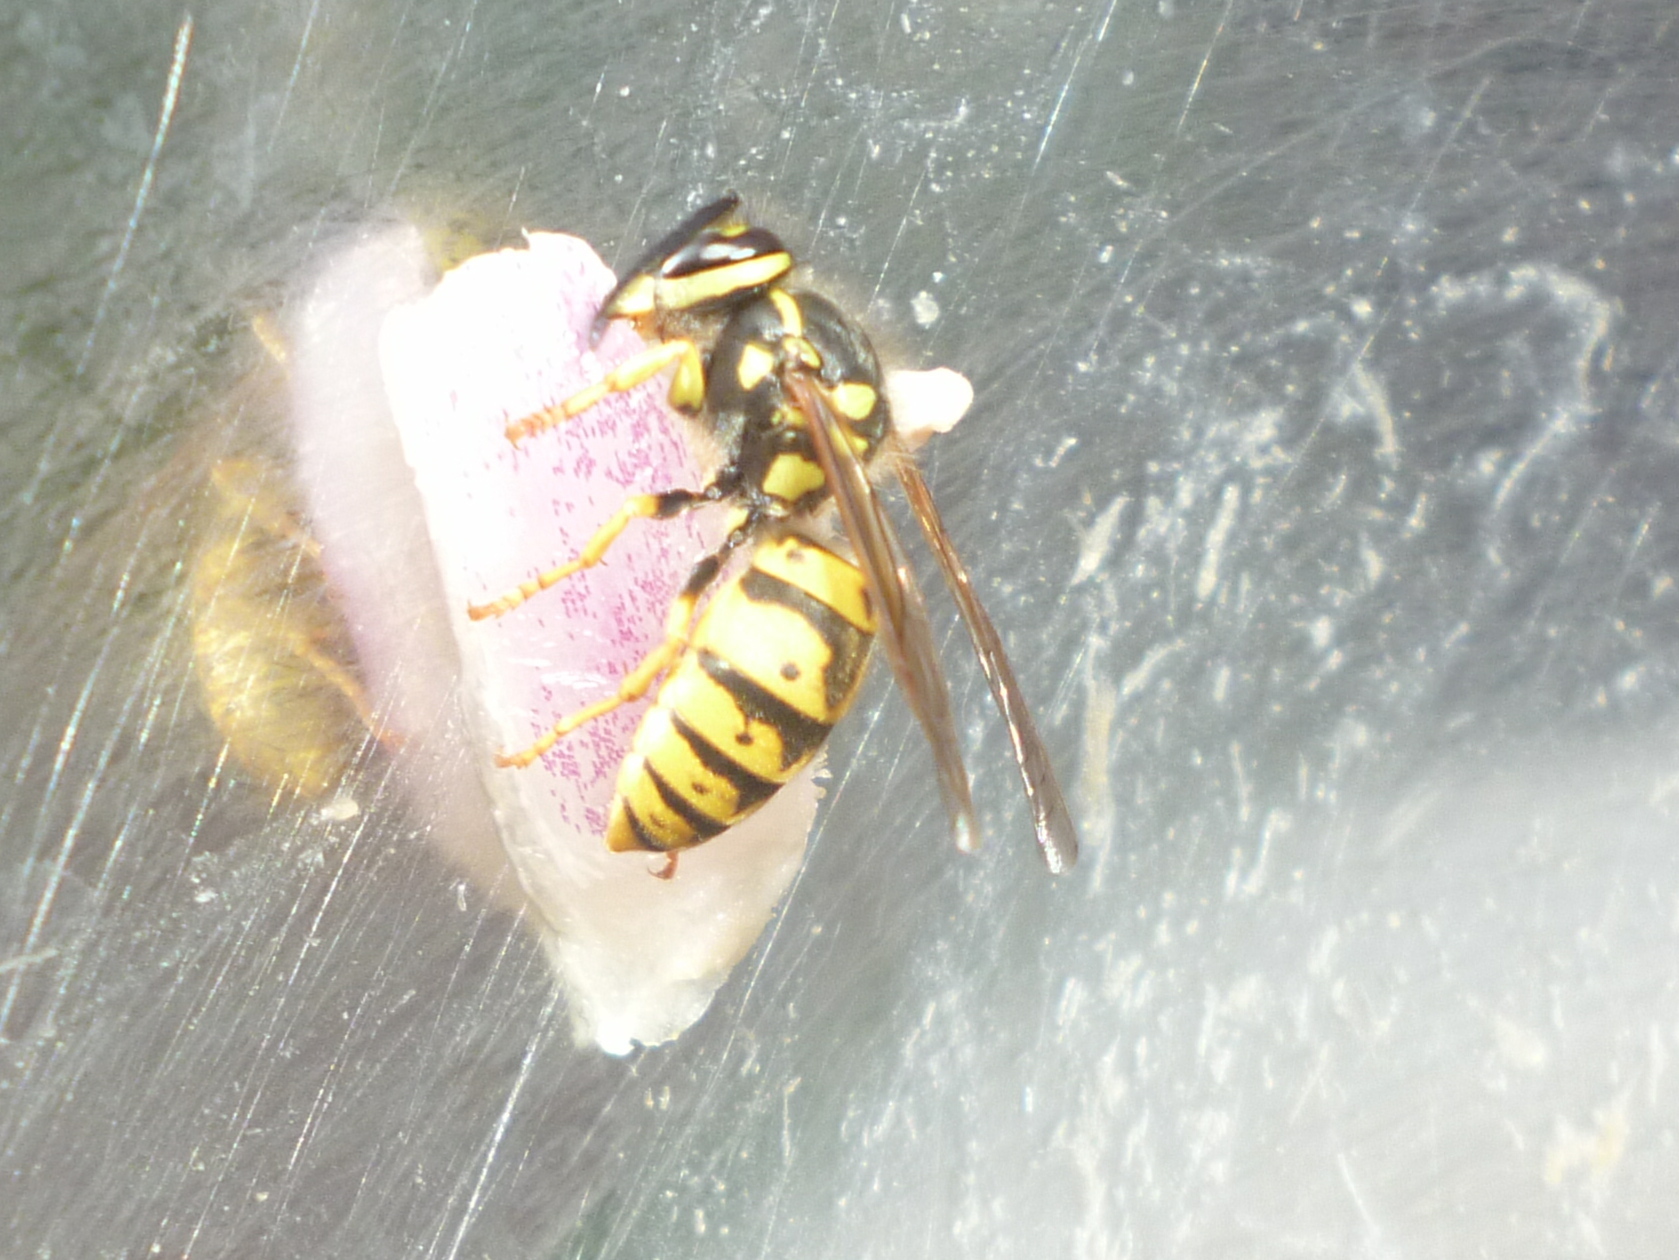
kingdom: Animalia
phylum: Arthropoda
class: Insecta
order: Hymenoptera
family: Vespidae
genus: Vespula
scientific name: Vespula germanica
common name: German wasp
